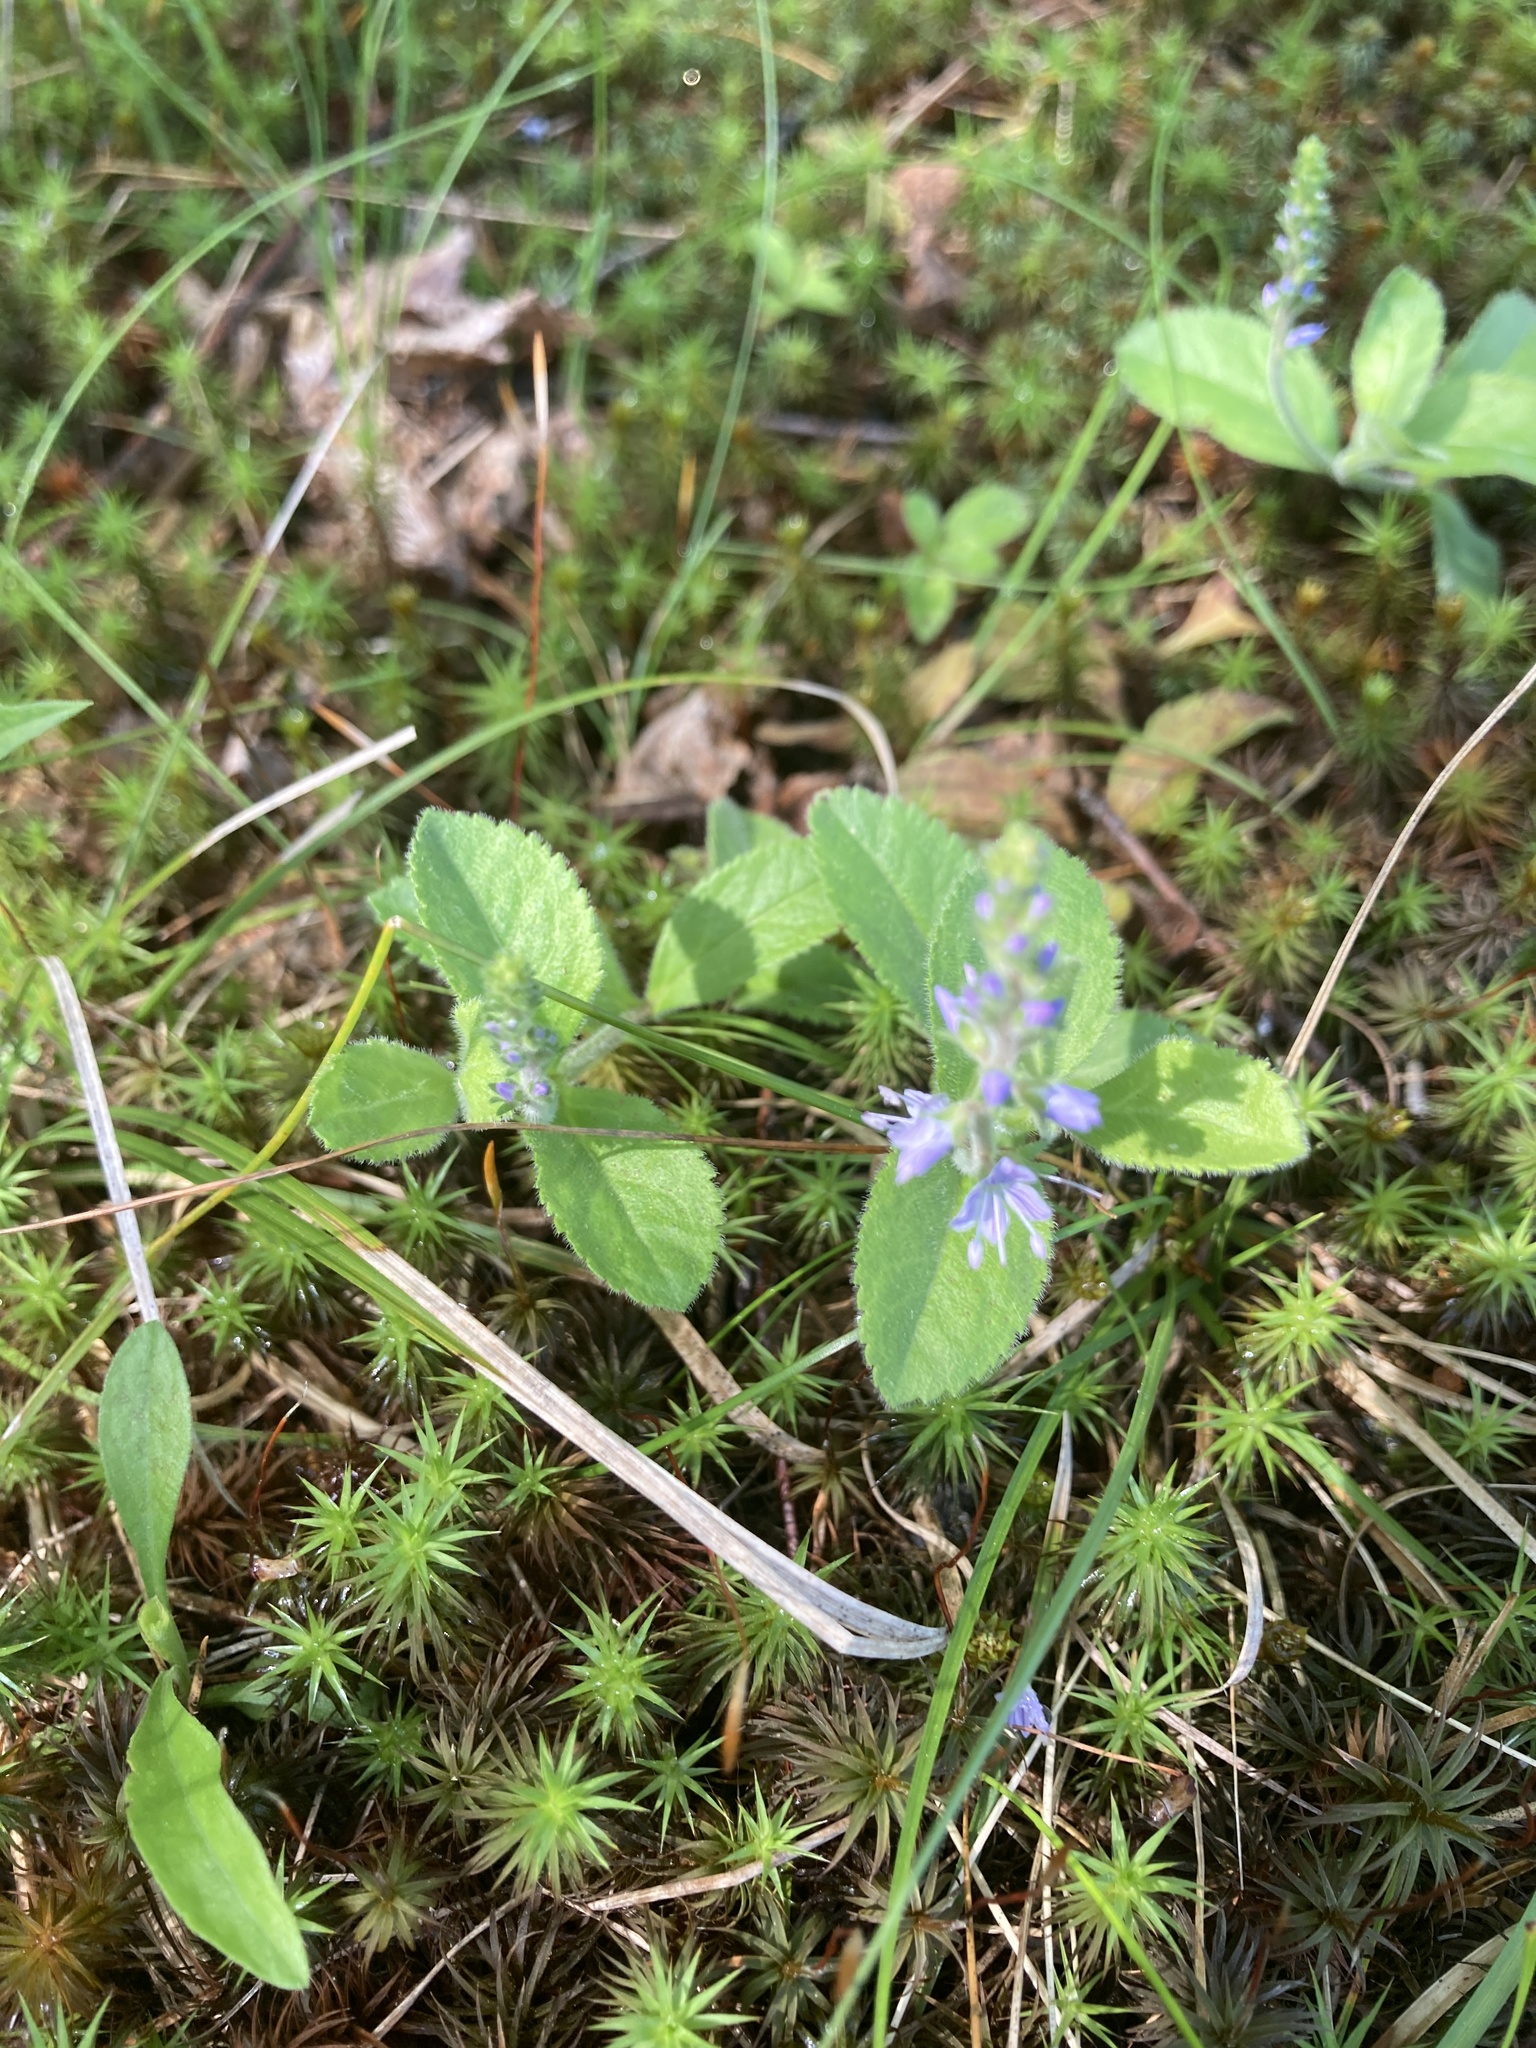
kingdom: Plantae
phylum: Tracheophyta
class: Magnoliopsida
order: Lamiales
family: Plantaginaceae
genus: Veronica
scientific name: Veronica officinalis
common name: Common speedwell
